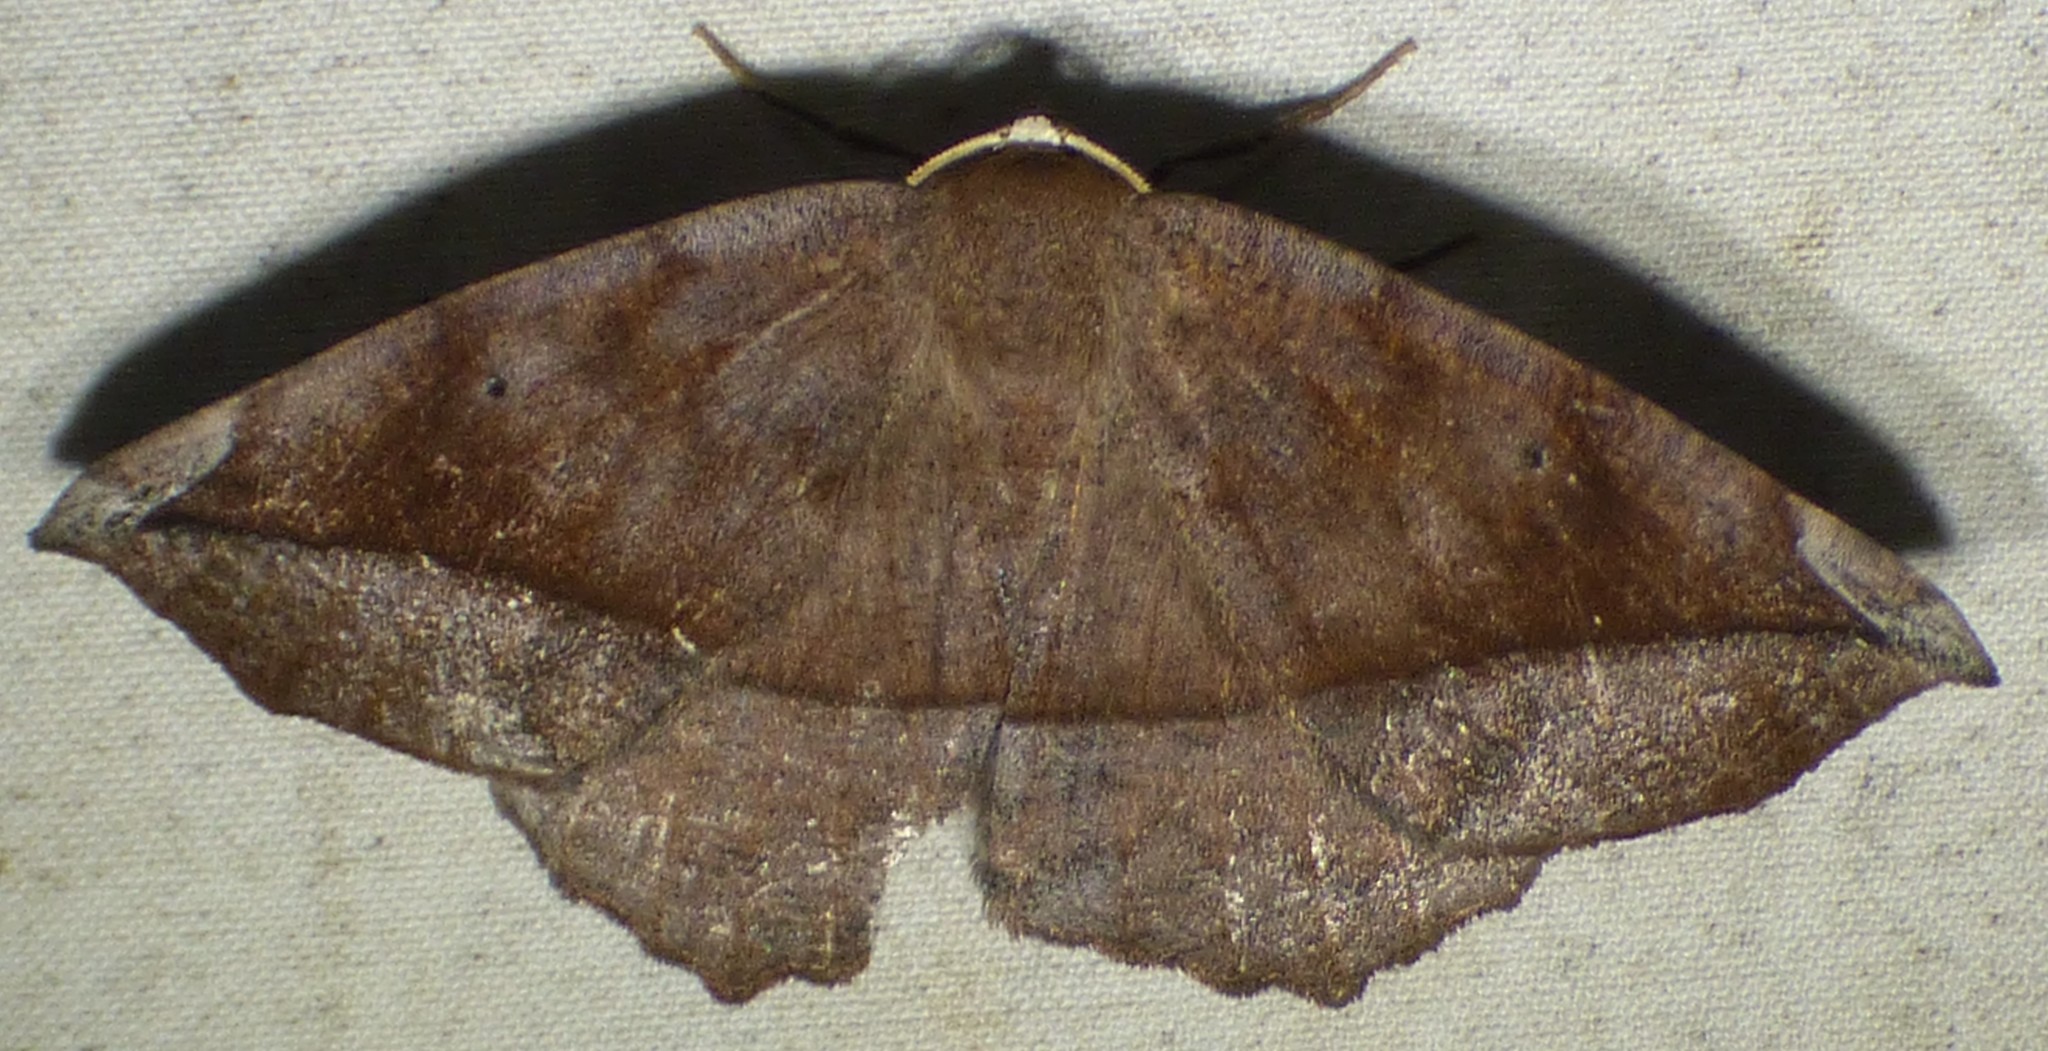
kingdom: Animalia
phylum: Arthropoda
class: Insecta
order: Lepidoptera
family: Geometridae
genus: Eutrapela
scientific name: Eutrapela clemataria
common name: Curved-toothed geometer
